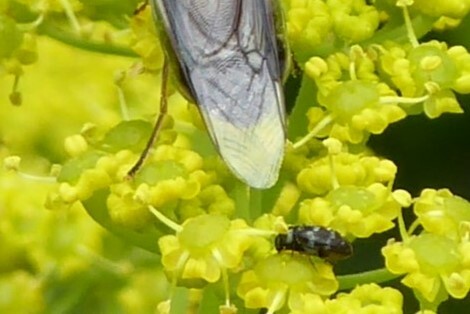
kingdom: Animalia
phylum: Arthropoda
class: Insecta
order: Coleoptera
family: Dermestidae
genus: Anthrenocerus
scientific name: Anthrenocerus australis
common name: Australian carpet beetle
